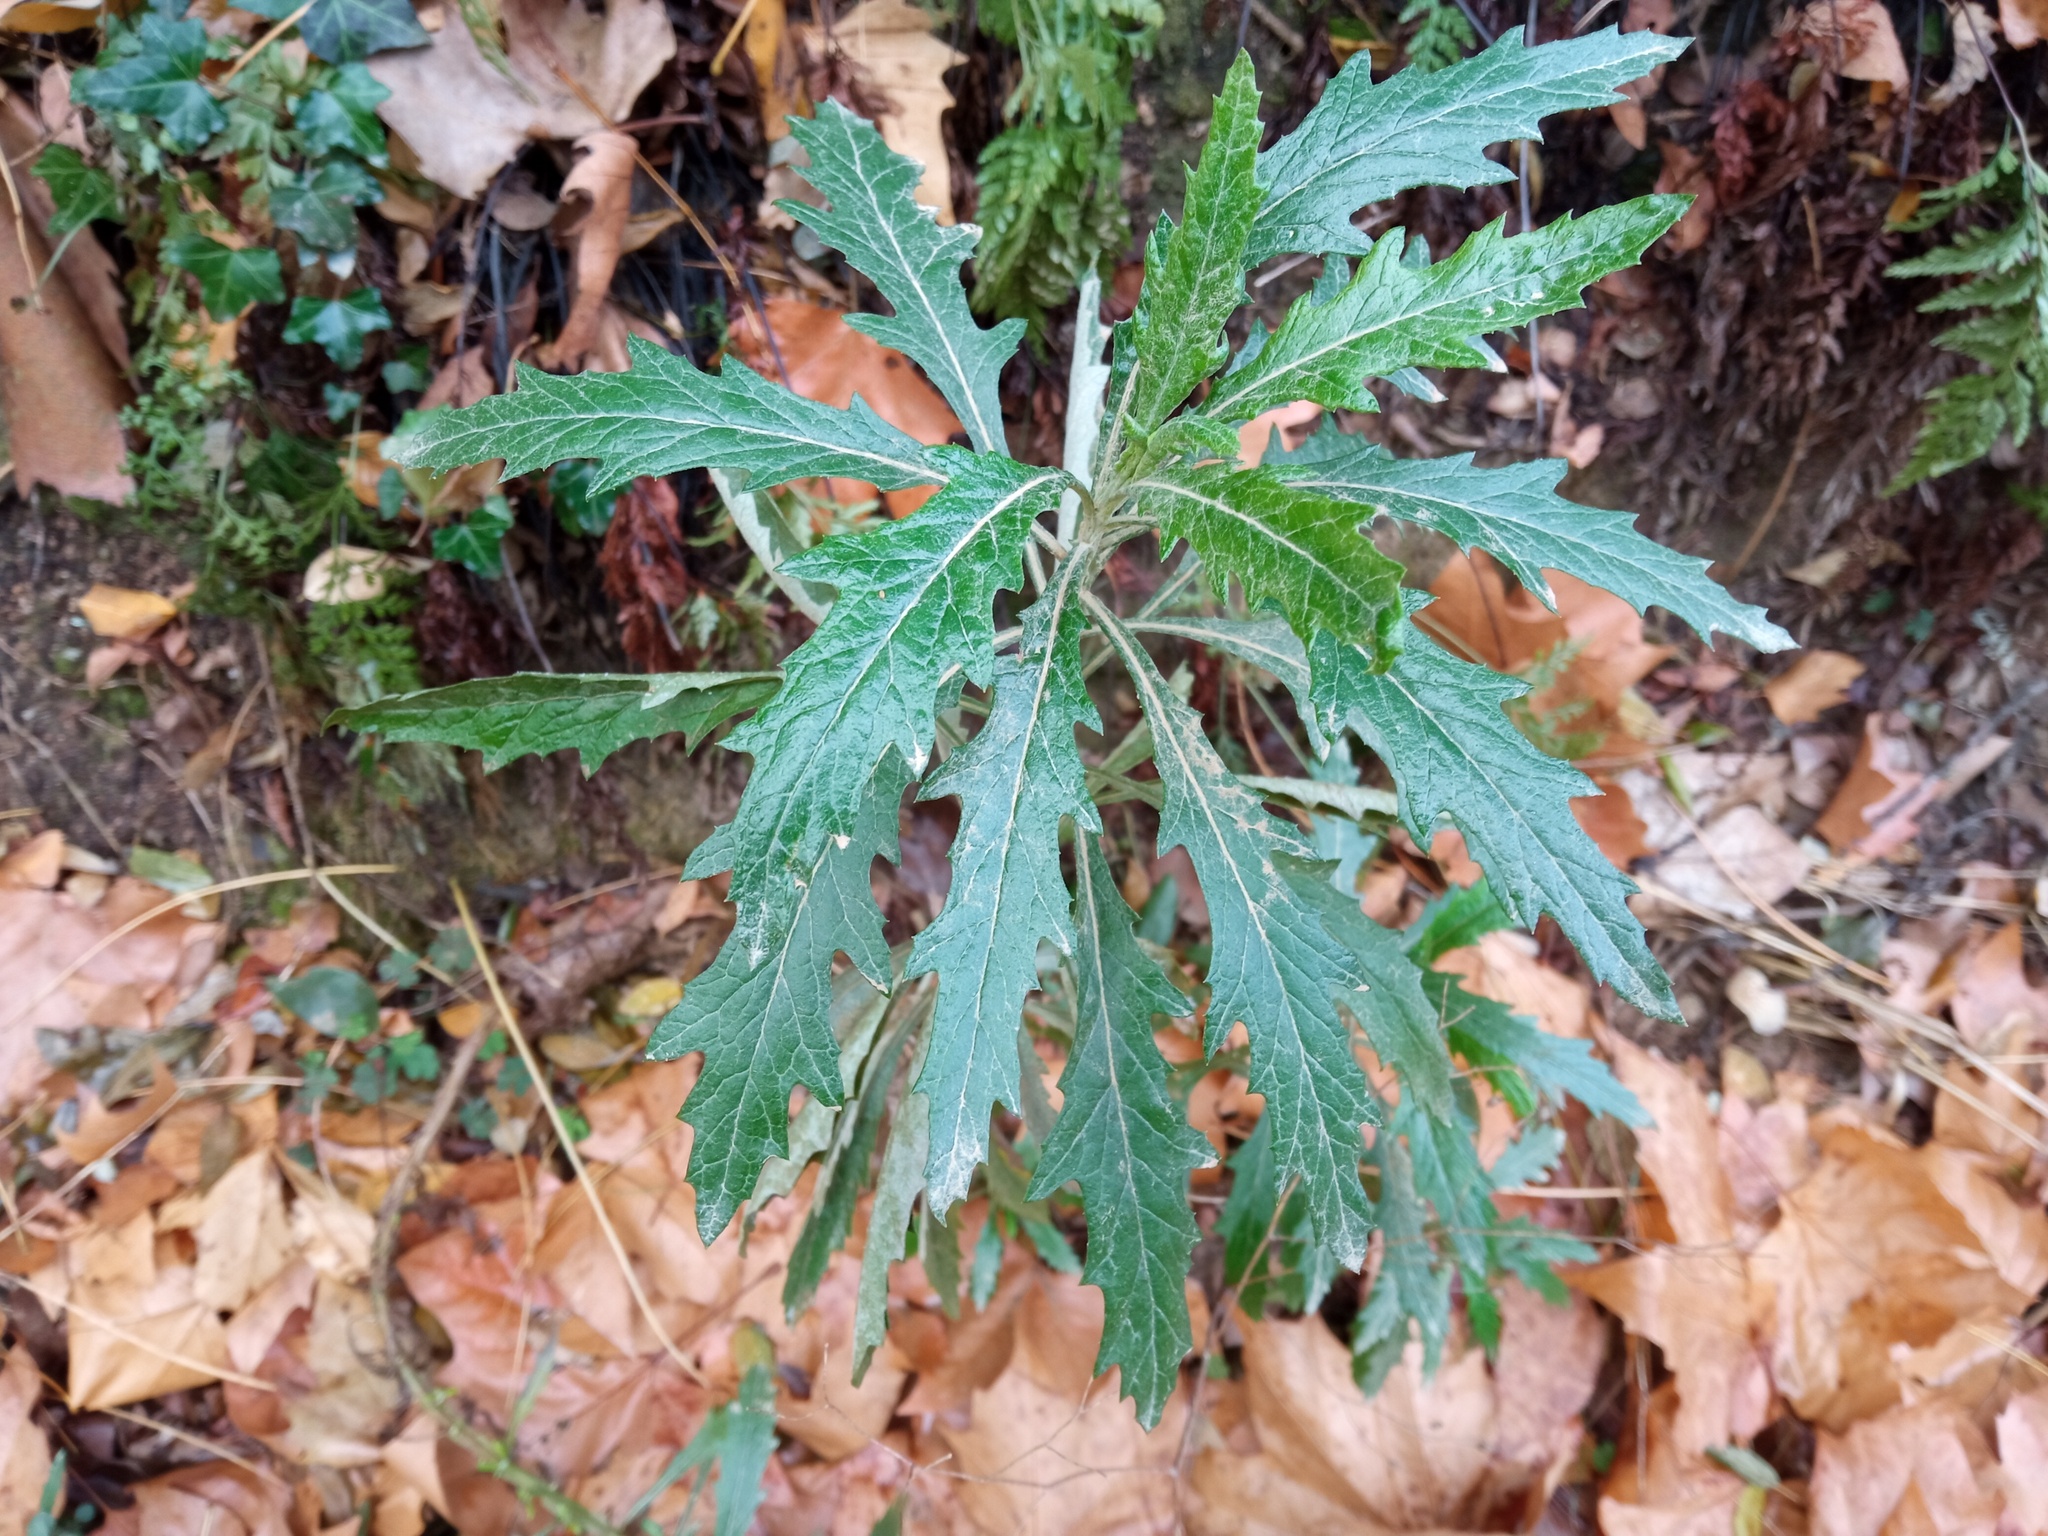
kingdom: Plantae
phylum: Tracheophyta
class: Magnoliopsida
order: Asterales
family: Asteraceae
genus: Senecio
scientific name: Senecio pterophorus
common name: Shoddy ragwort
